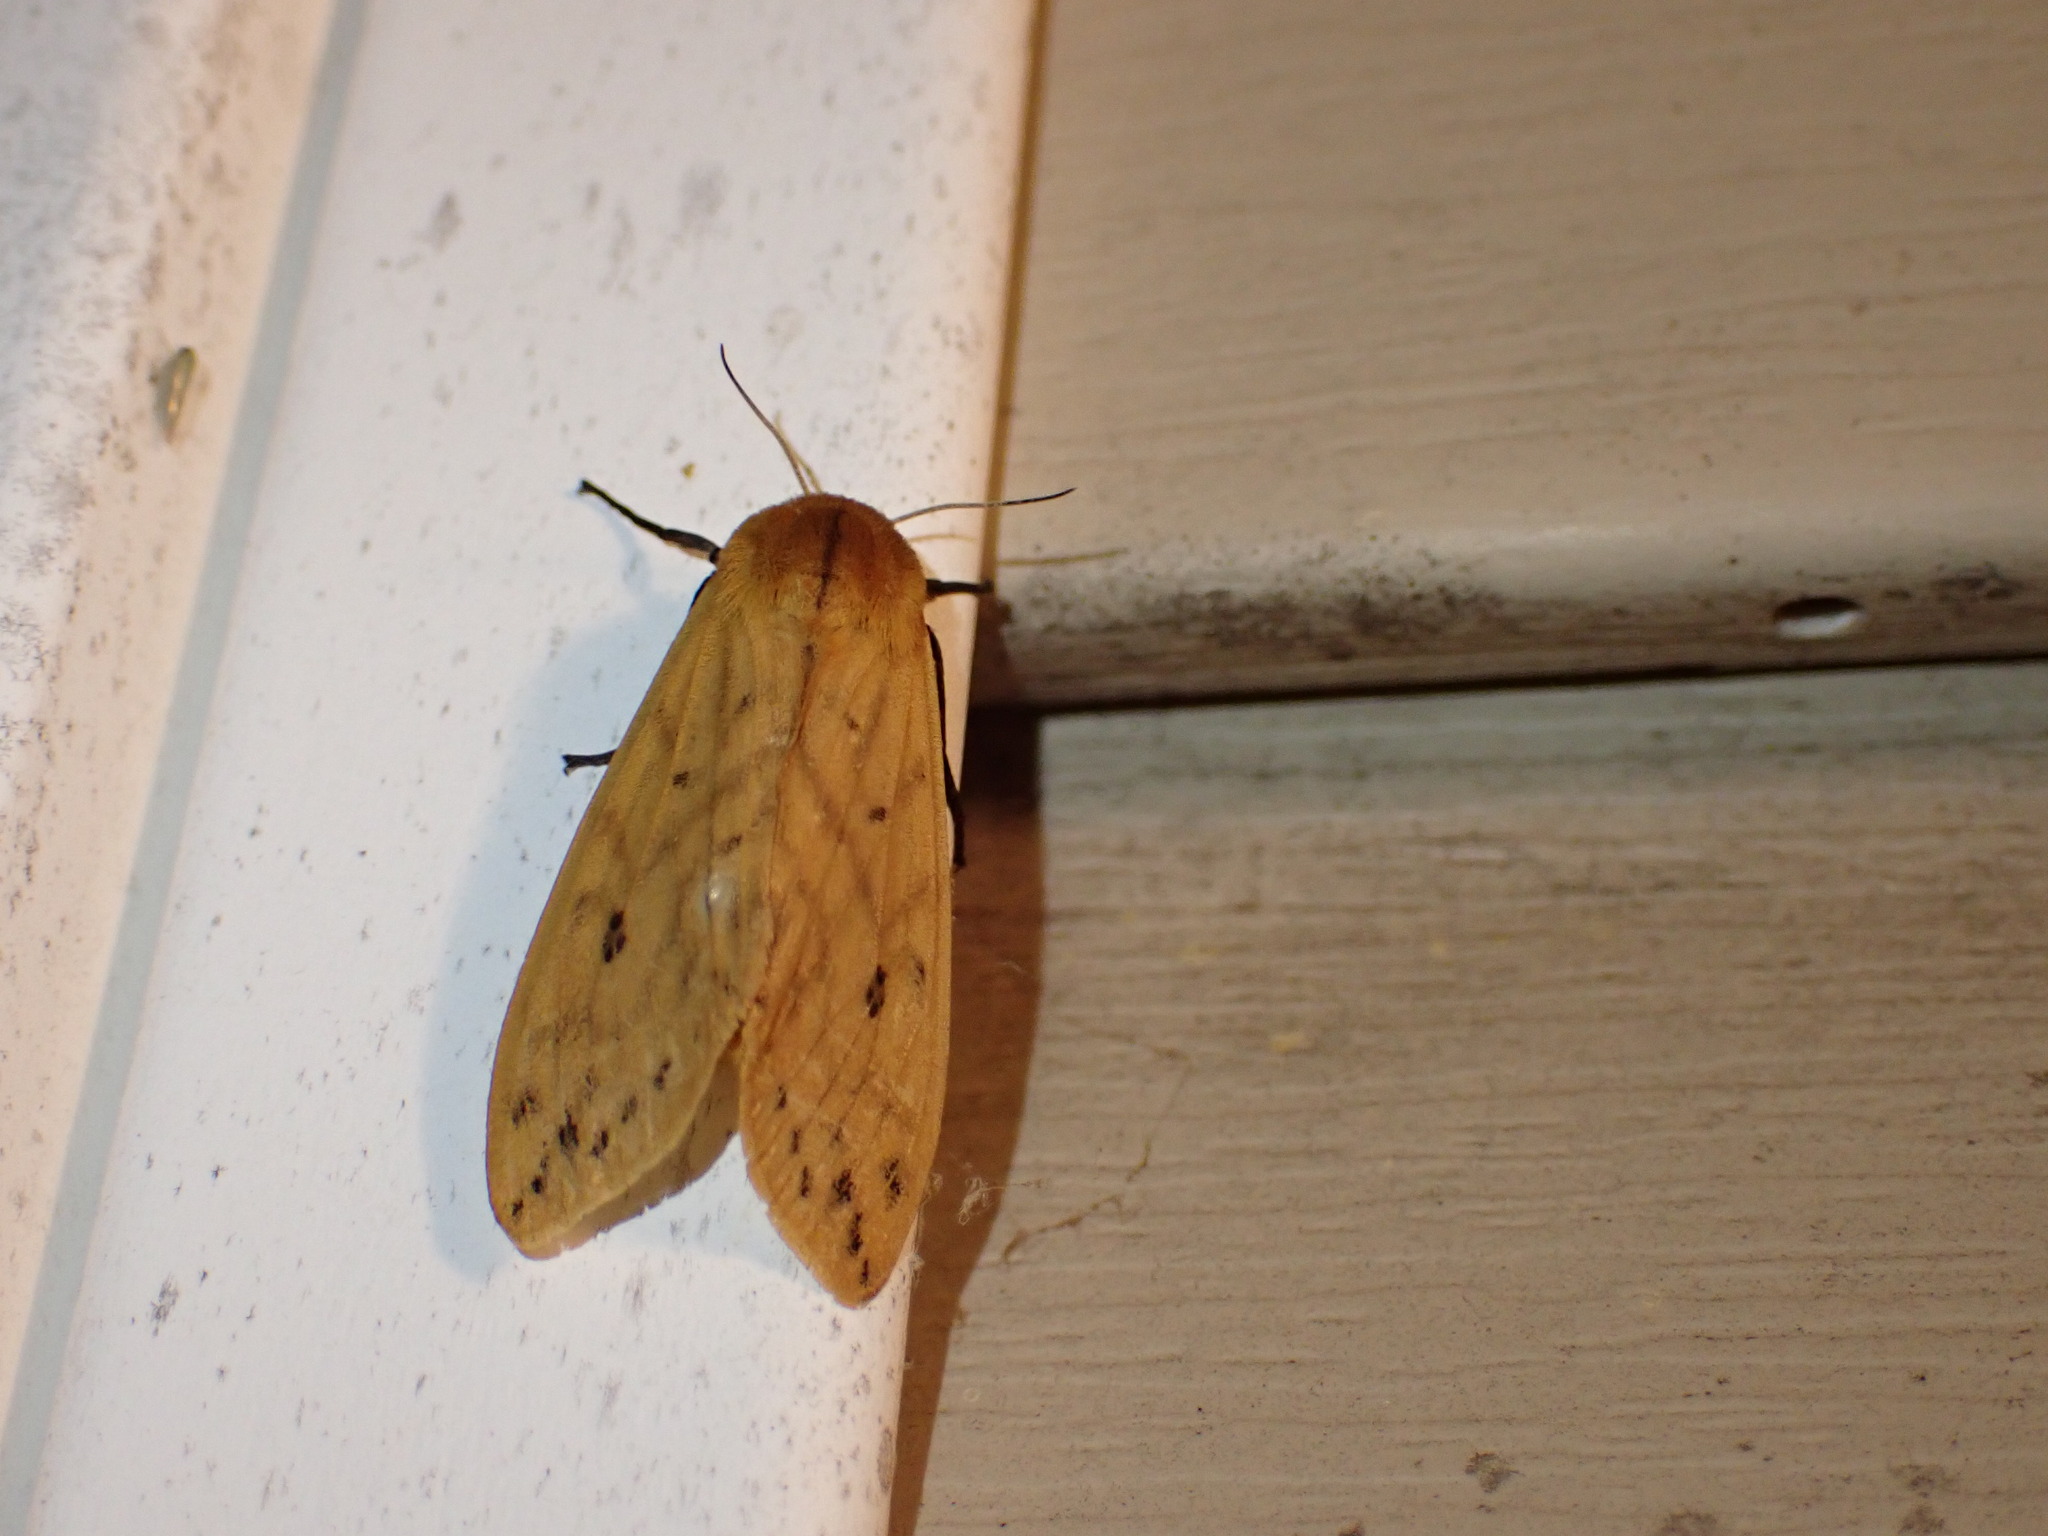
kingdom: Animalia
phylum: Arthropoda
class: Insecta
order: Lepidoptera
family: Erebidae
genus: Pyrrharctia
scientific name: Pyrrharctia isabella
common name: Isabella tiger moth
